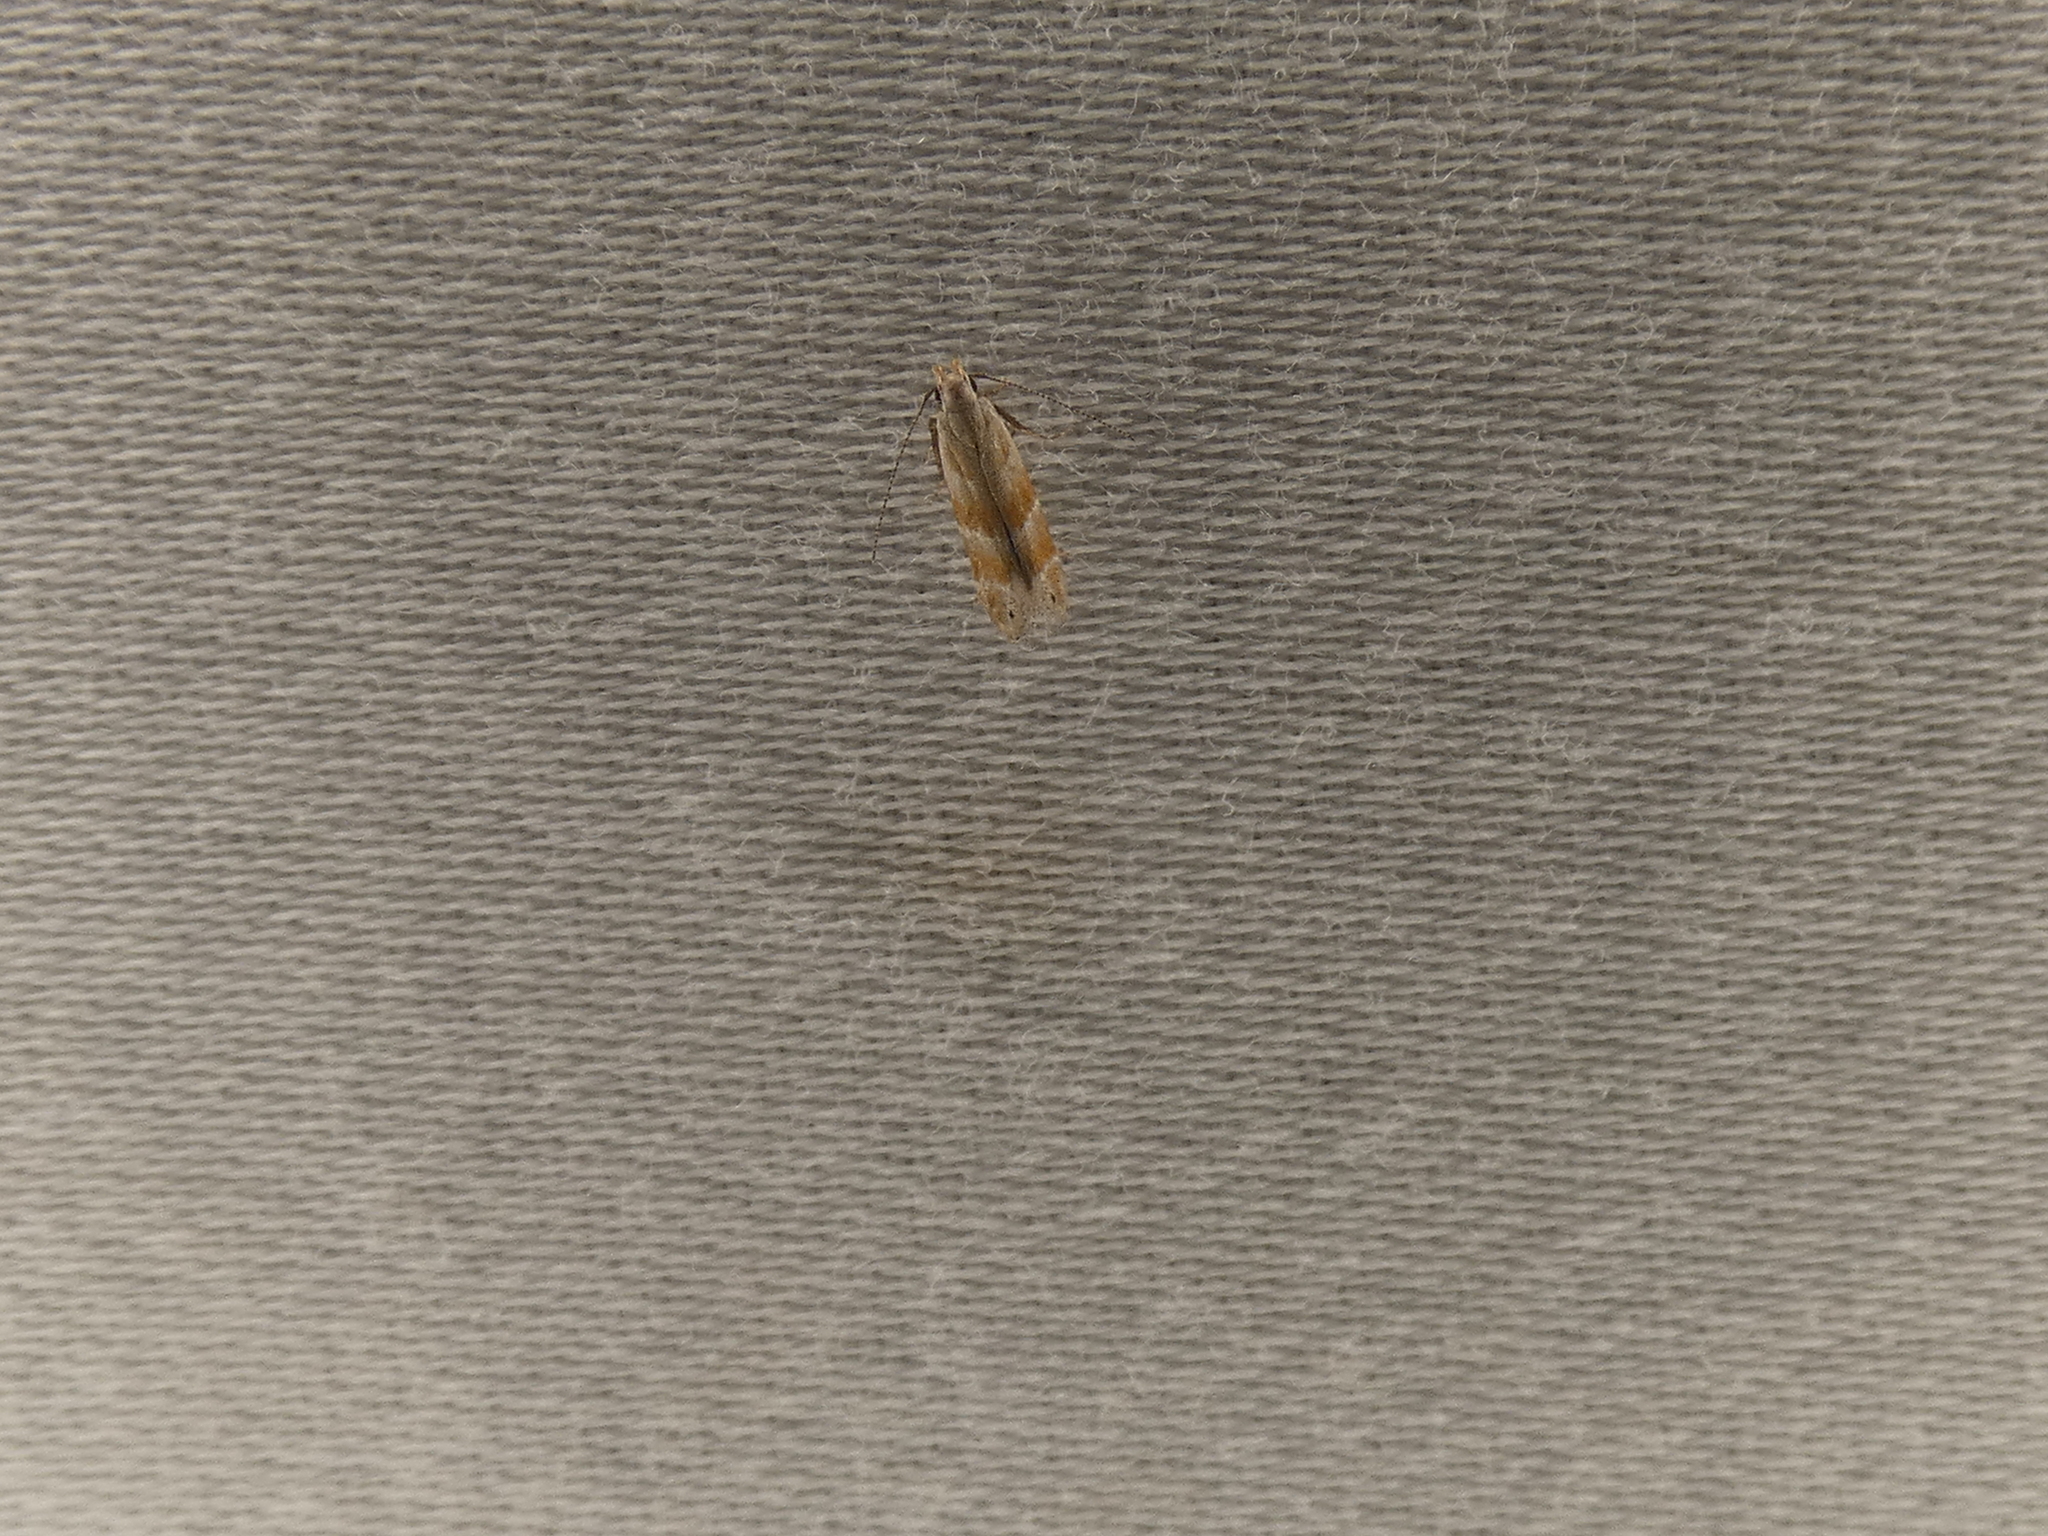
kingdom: Animalia
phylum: Arthropoda
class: Insecta
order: Lepidoptera
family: Gelechiidae
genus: Battaristis
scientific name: Battaristis vittella
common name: Orange stripe-backed moth
